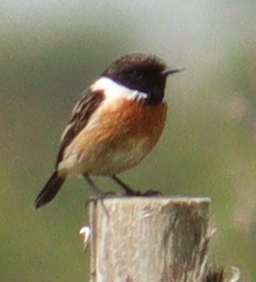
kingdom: Animalia
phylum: Chordata
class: Aves
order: Passeriformes
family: Muscicapidae
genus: Saxicola
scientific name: Saxicola rubicola
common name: European stonechat
